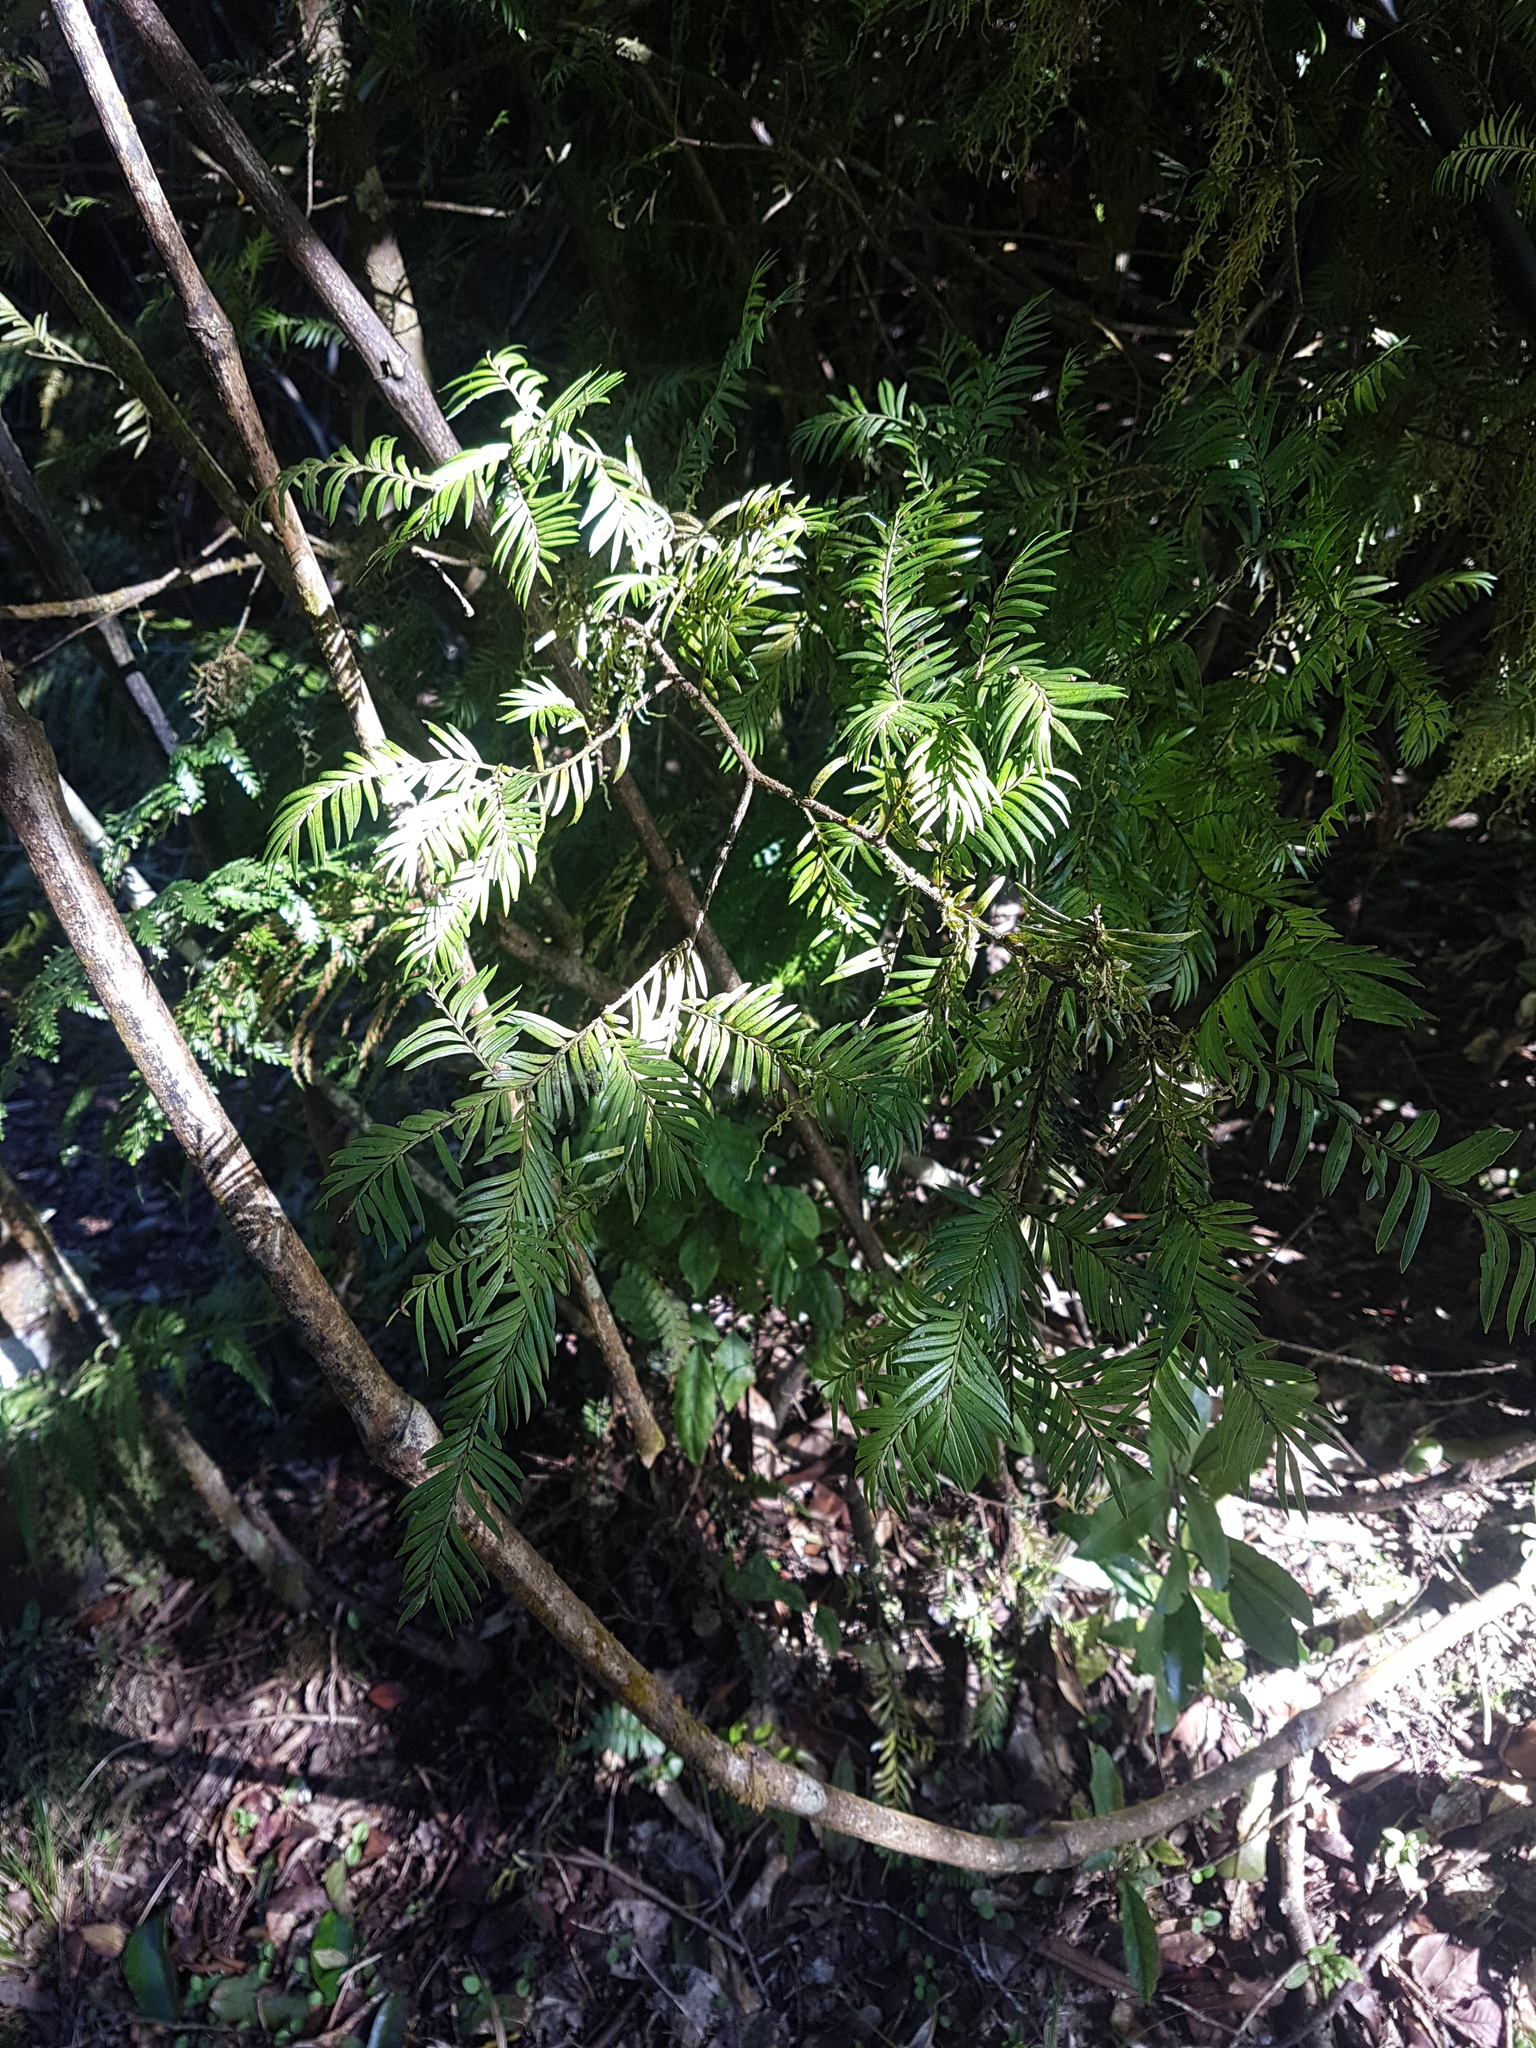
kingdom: Plantae
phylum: Tracheophyta
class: Pinopsida
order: Pinales
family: Podocarpaceae
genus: Prumnopitys
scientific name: Prumnopitys ferruginea
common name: Brown pine
